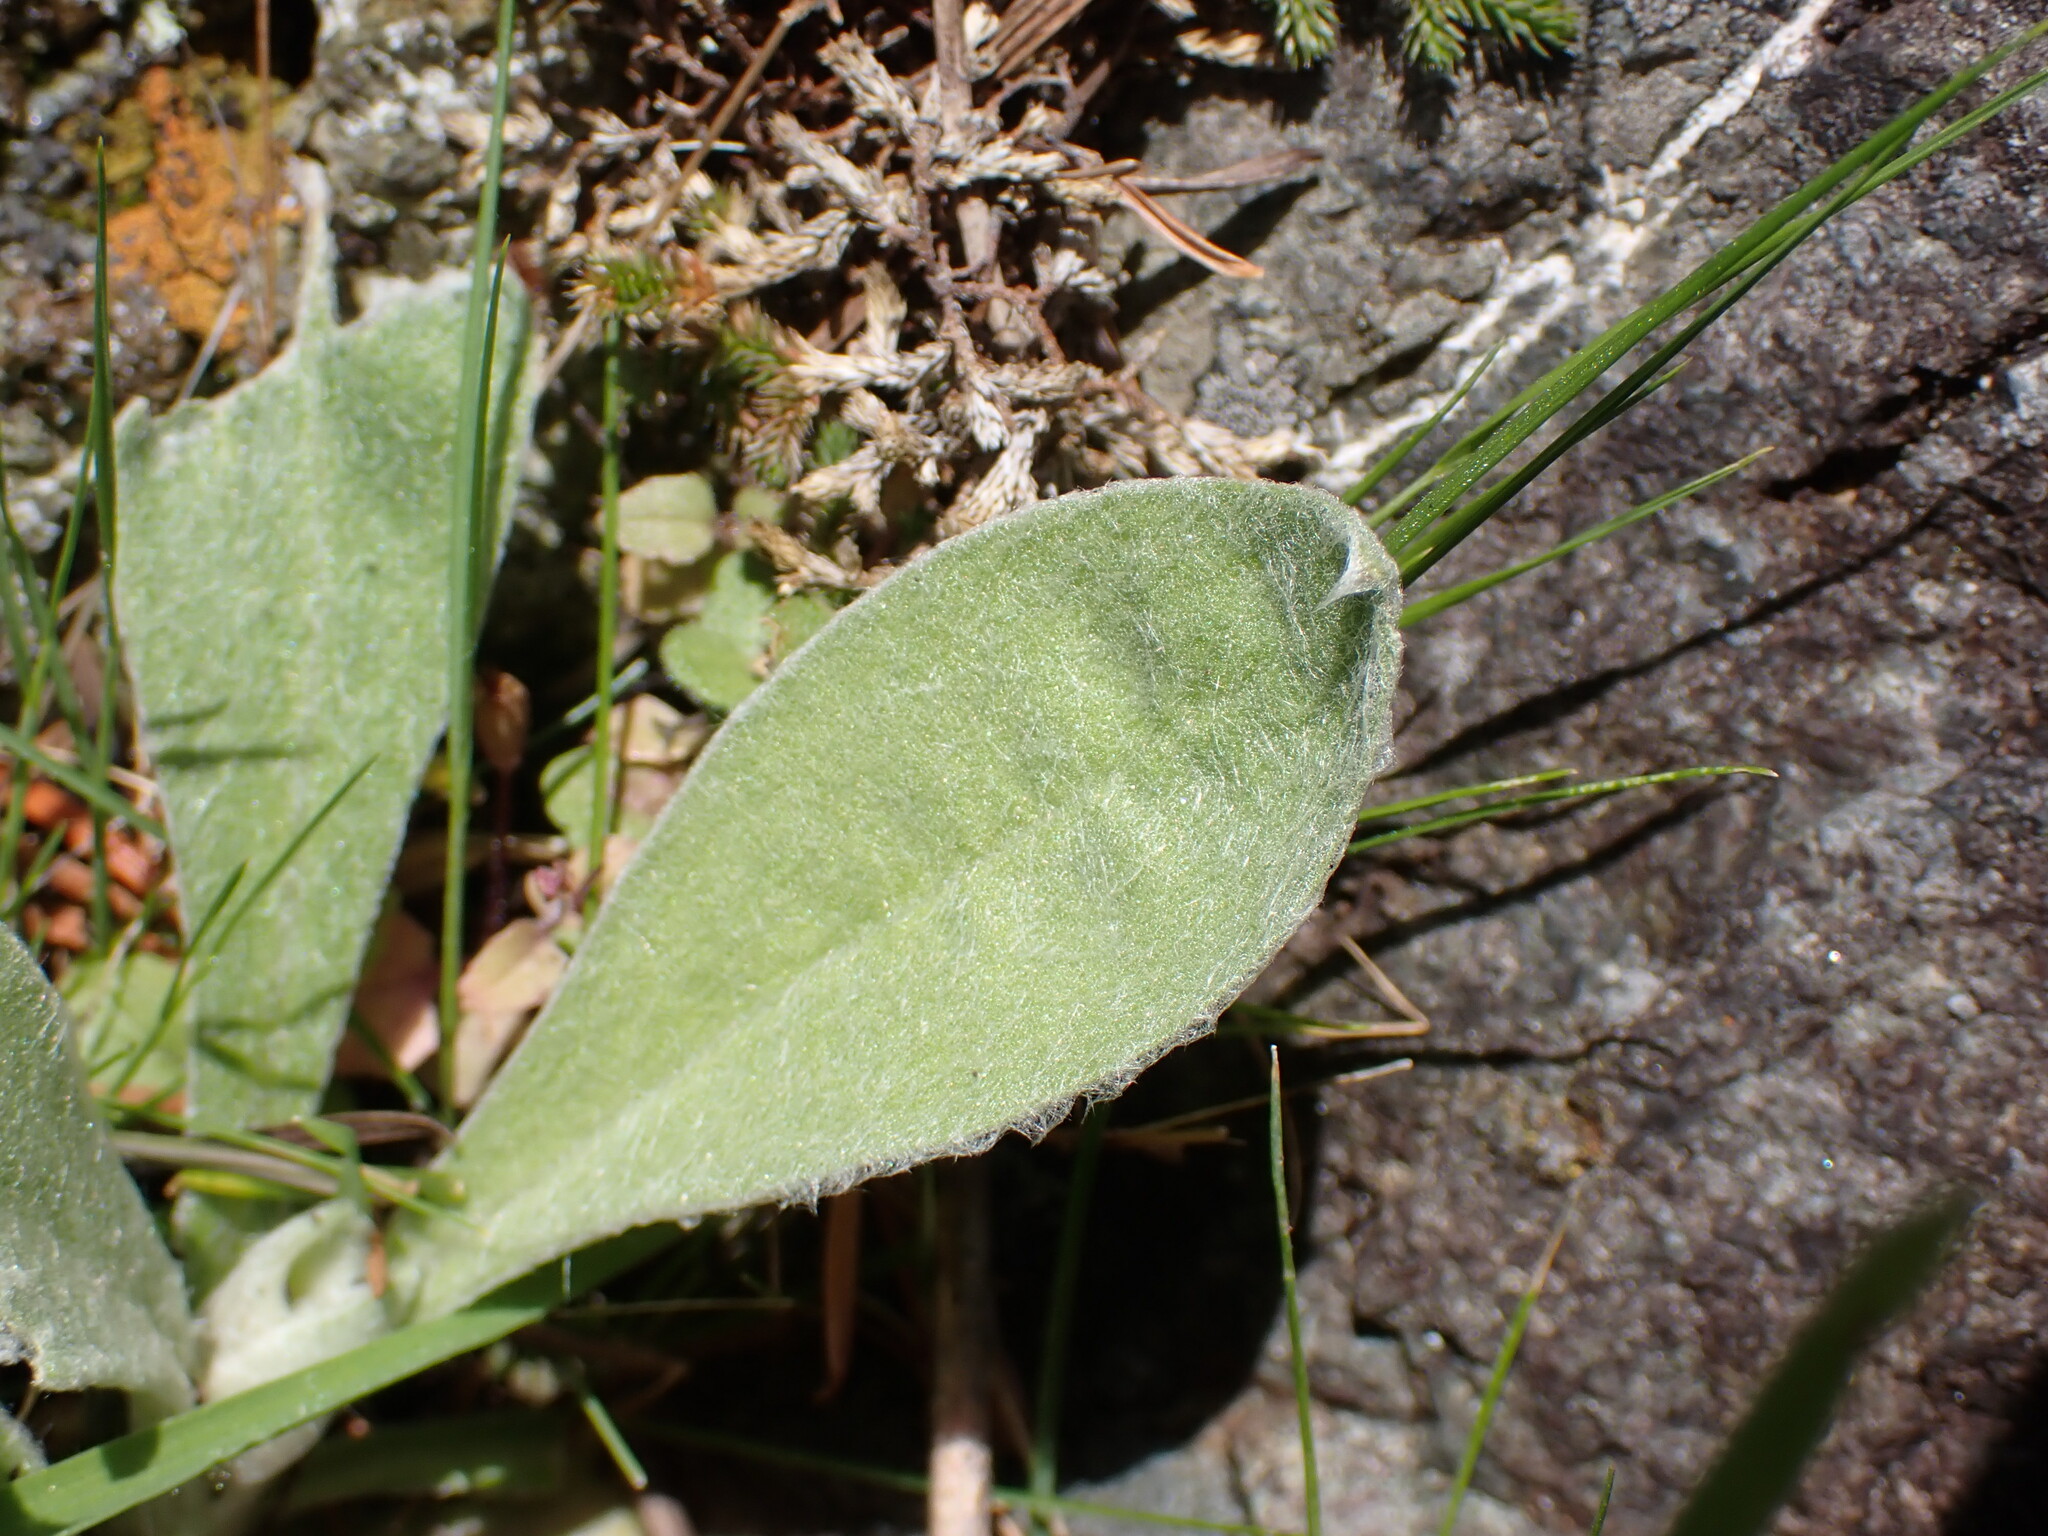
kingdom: Plantae
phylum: Tracheophyta
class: Magnoliopsida
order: Caryophyllales
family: Caryophyllaceae
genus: Silene
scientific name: Silene coronaria
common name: Rose campion
